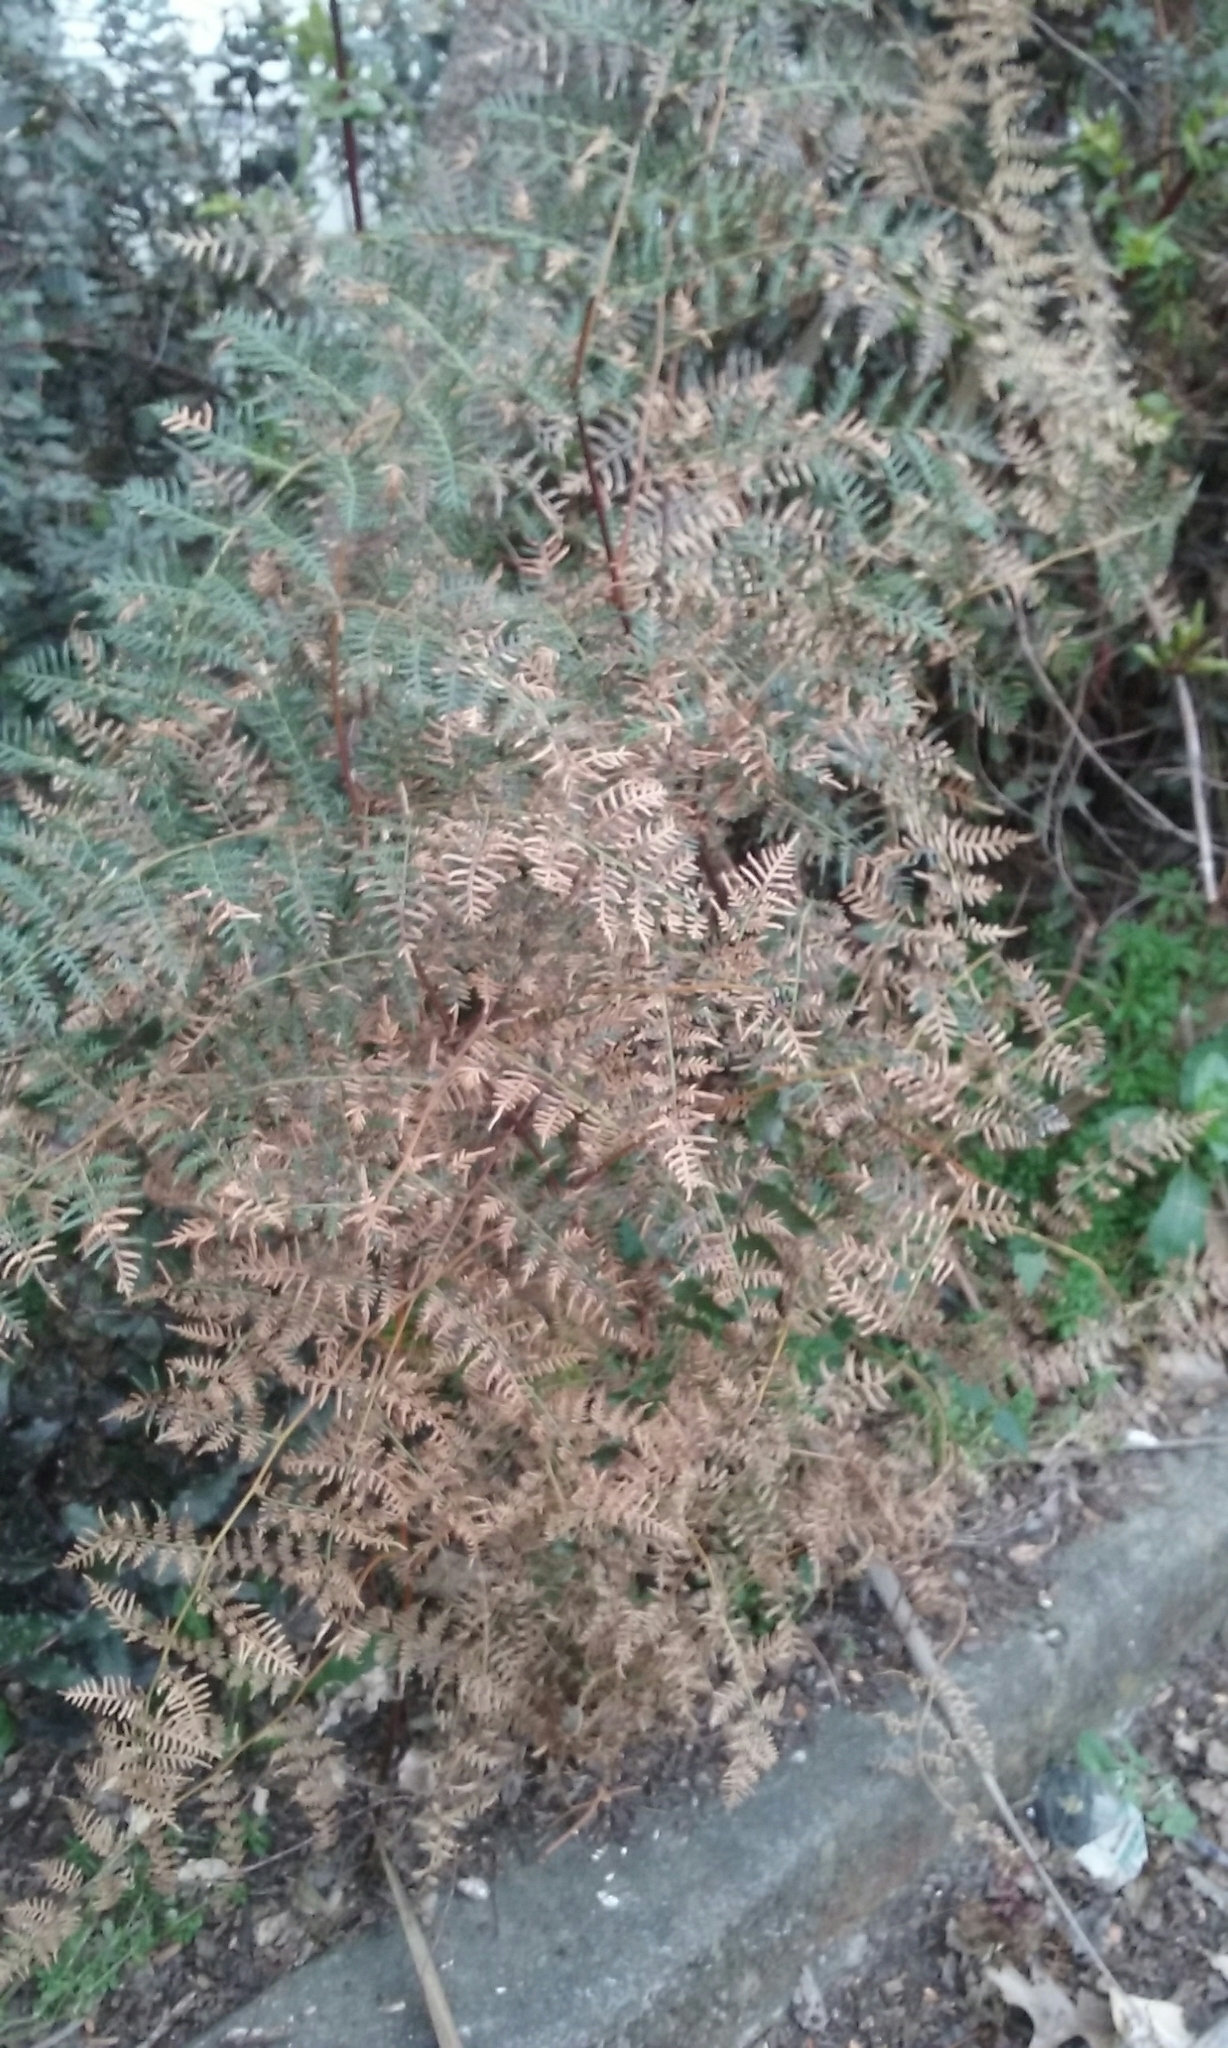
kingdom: Plantae
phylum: Tracheophyta
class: Polypodiopsida
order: Polypodiales
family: Dennstaedtiaceae
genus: Pteridium
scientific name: Pteridium esculentum
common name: Bracken fern
